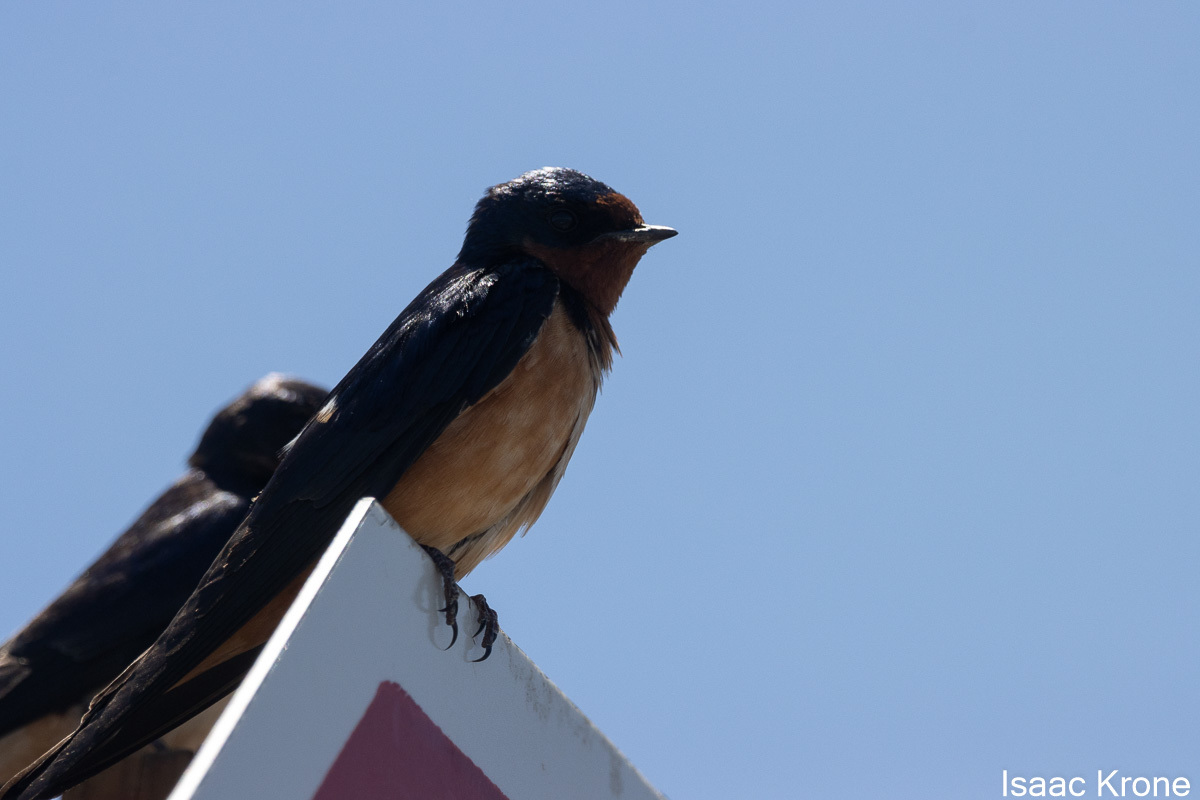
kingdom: Animalia
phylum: Chordata
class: Aves
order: Passeriformes
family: Hirundinidae
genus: Hirundo
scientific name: Hirundo rustica
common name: Barn swallow
